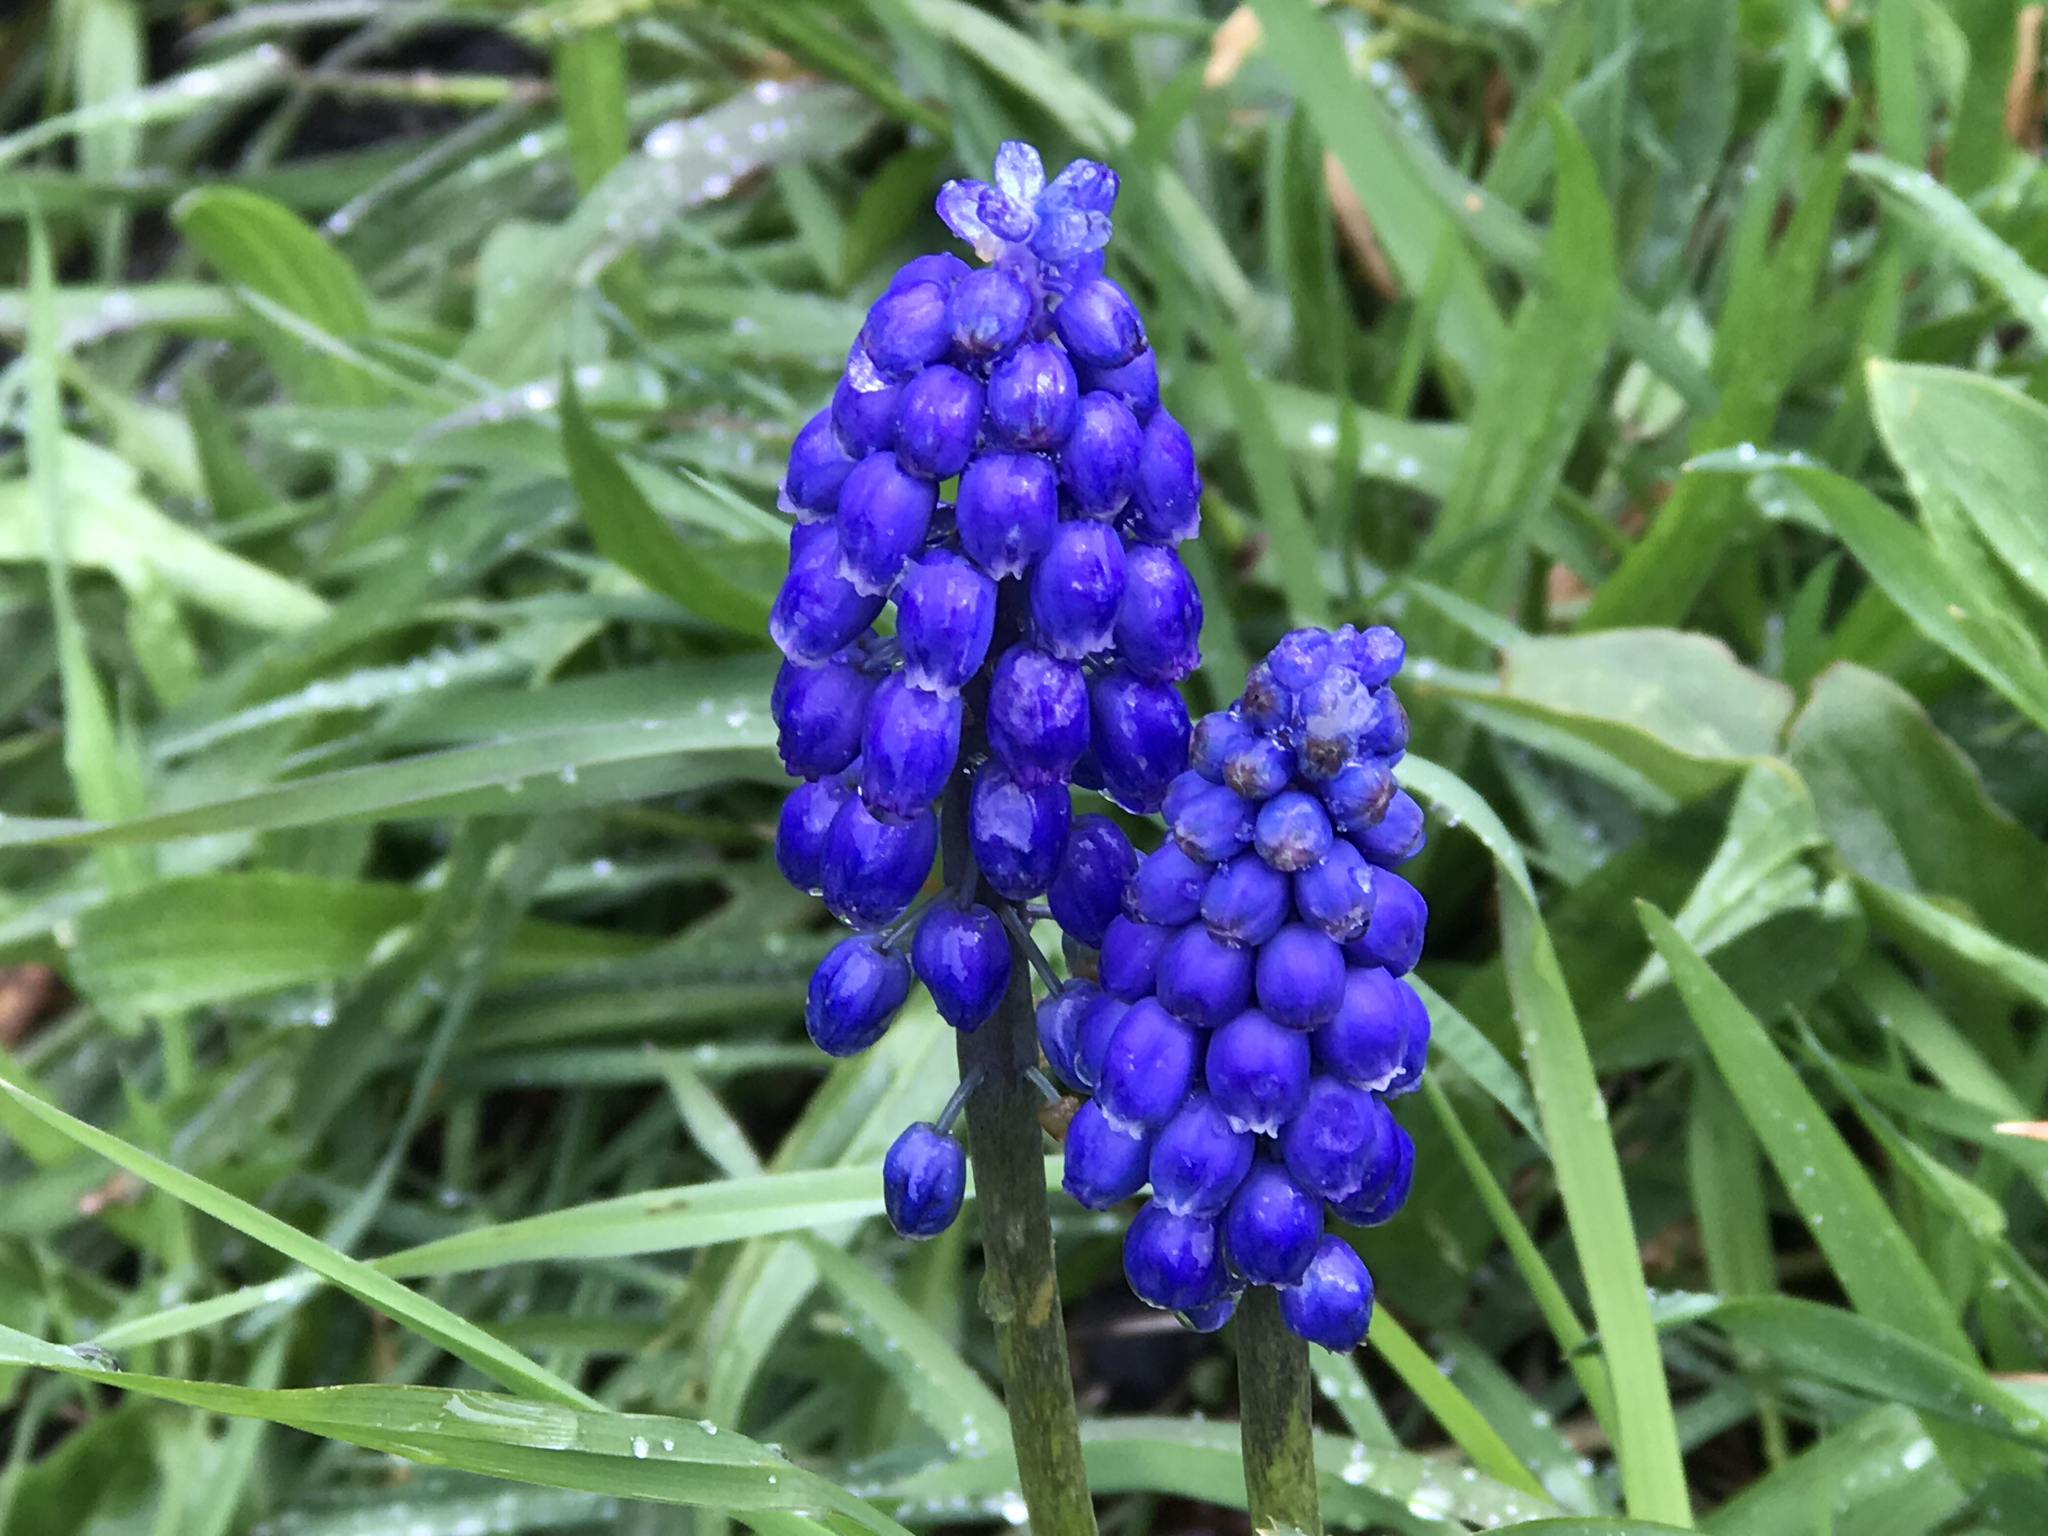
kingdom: Plantae
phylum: Tracheophyta
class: Liliopsida
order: Asparagales
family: Asparagaceae
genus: Muscari
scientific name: Muscari neglectum
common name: Grape-hyacinth
